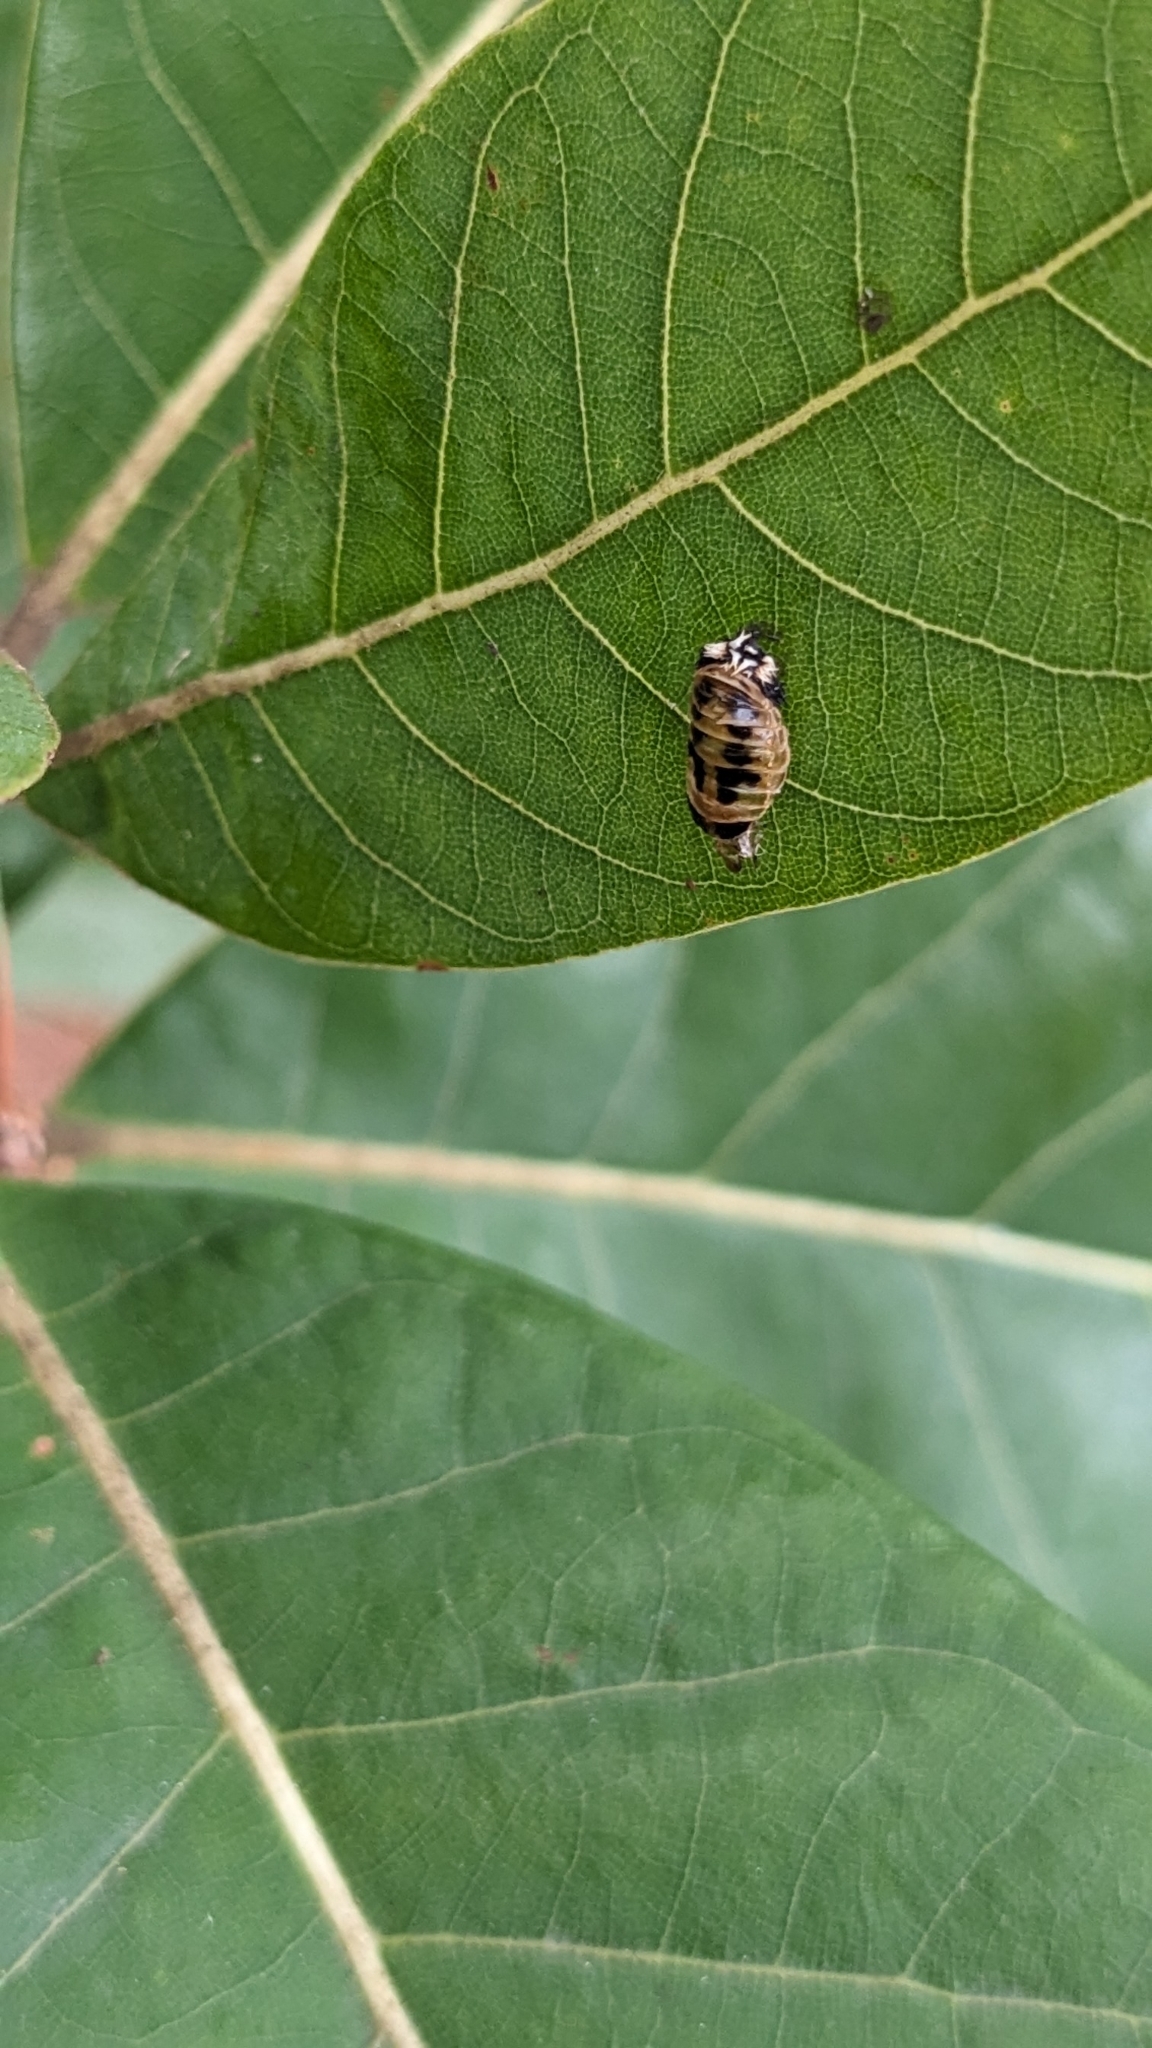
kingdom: Animalia
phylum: Arthropoda
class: Insecta
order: Coleoptera
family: Coccinellidae
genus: Harmonia
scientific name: Harmonia axyridis
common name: Harlequin ladybird
